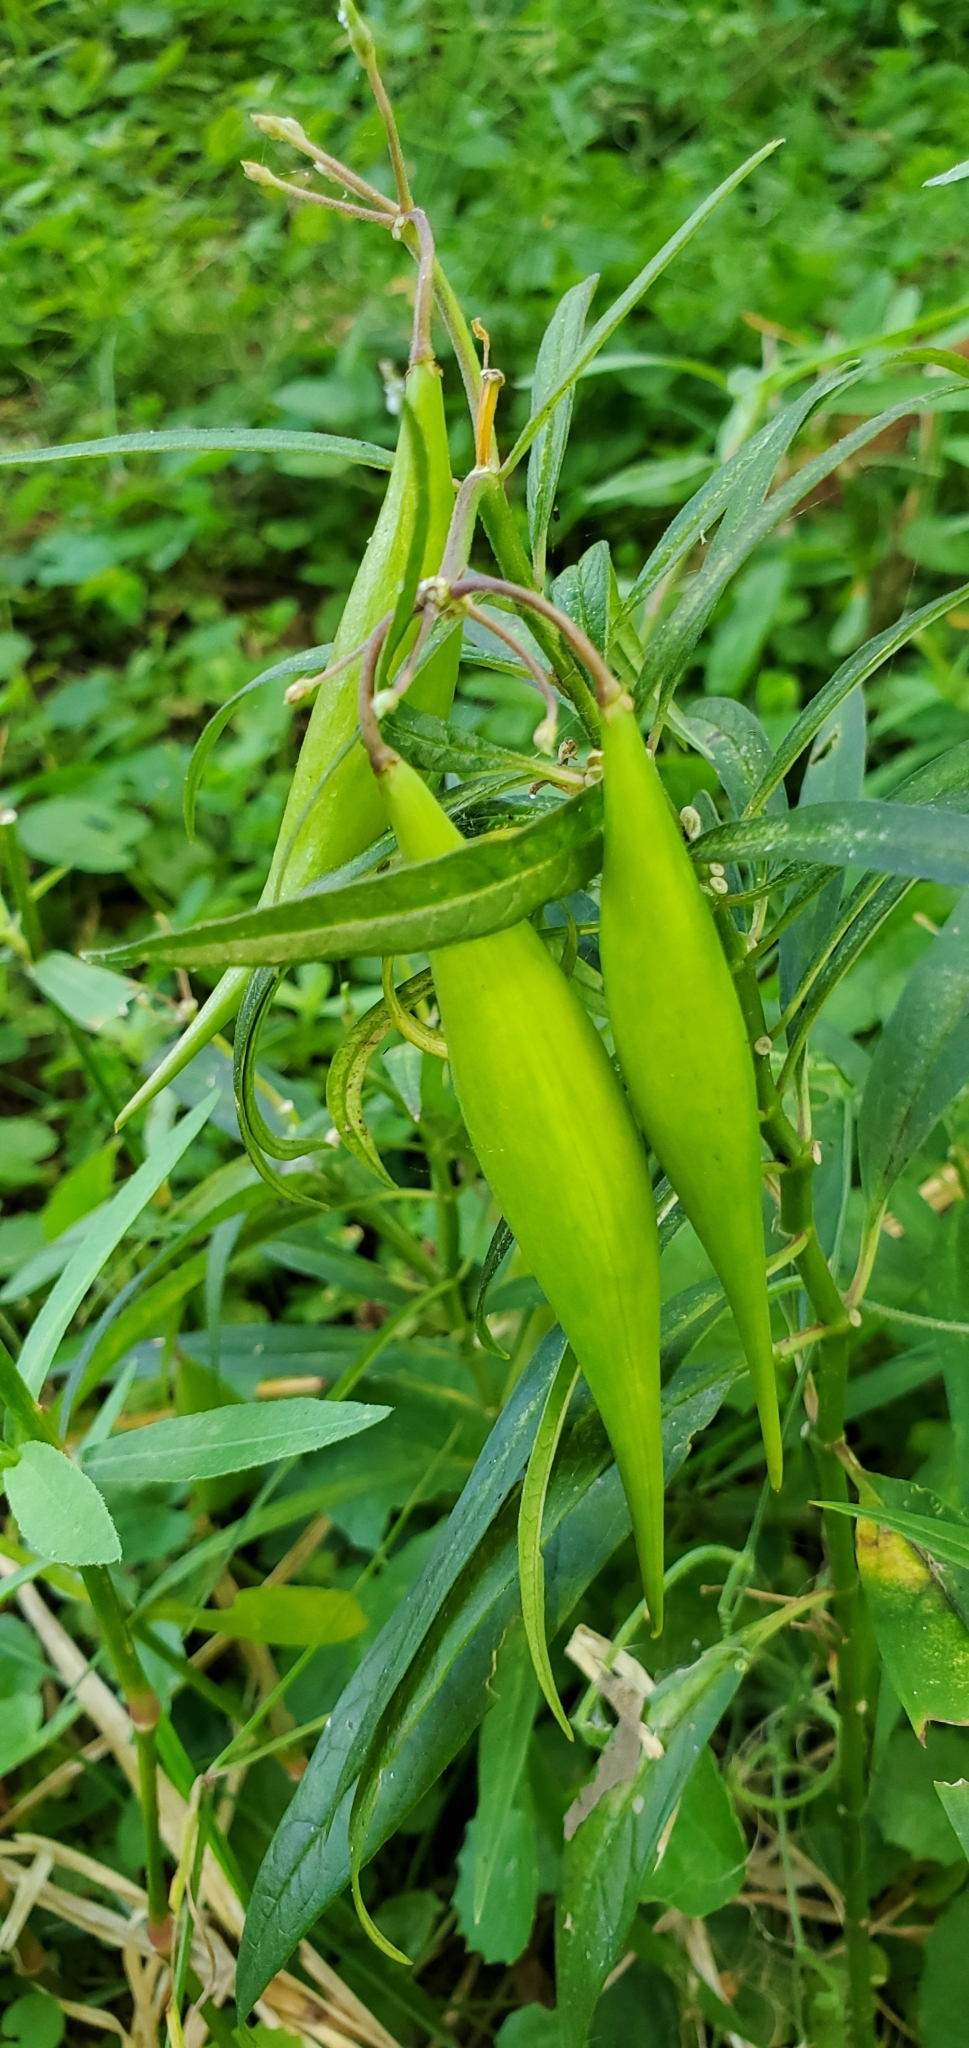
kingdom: Plantae
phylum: Tracheophyta
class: Magnoliopsida
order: Gentianales
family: Apocynaceae
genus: Asclepias
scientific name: Asclepias perennis
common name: Smooth-seed milkweed
